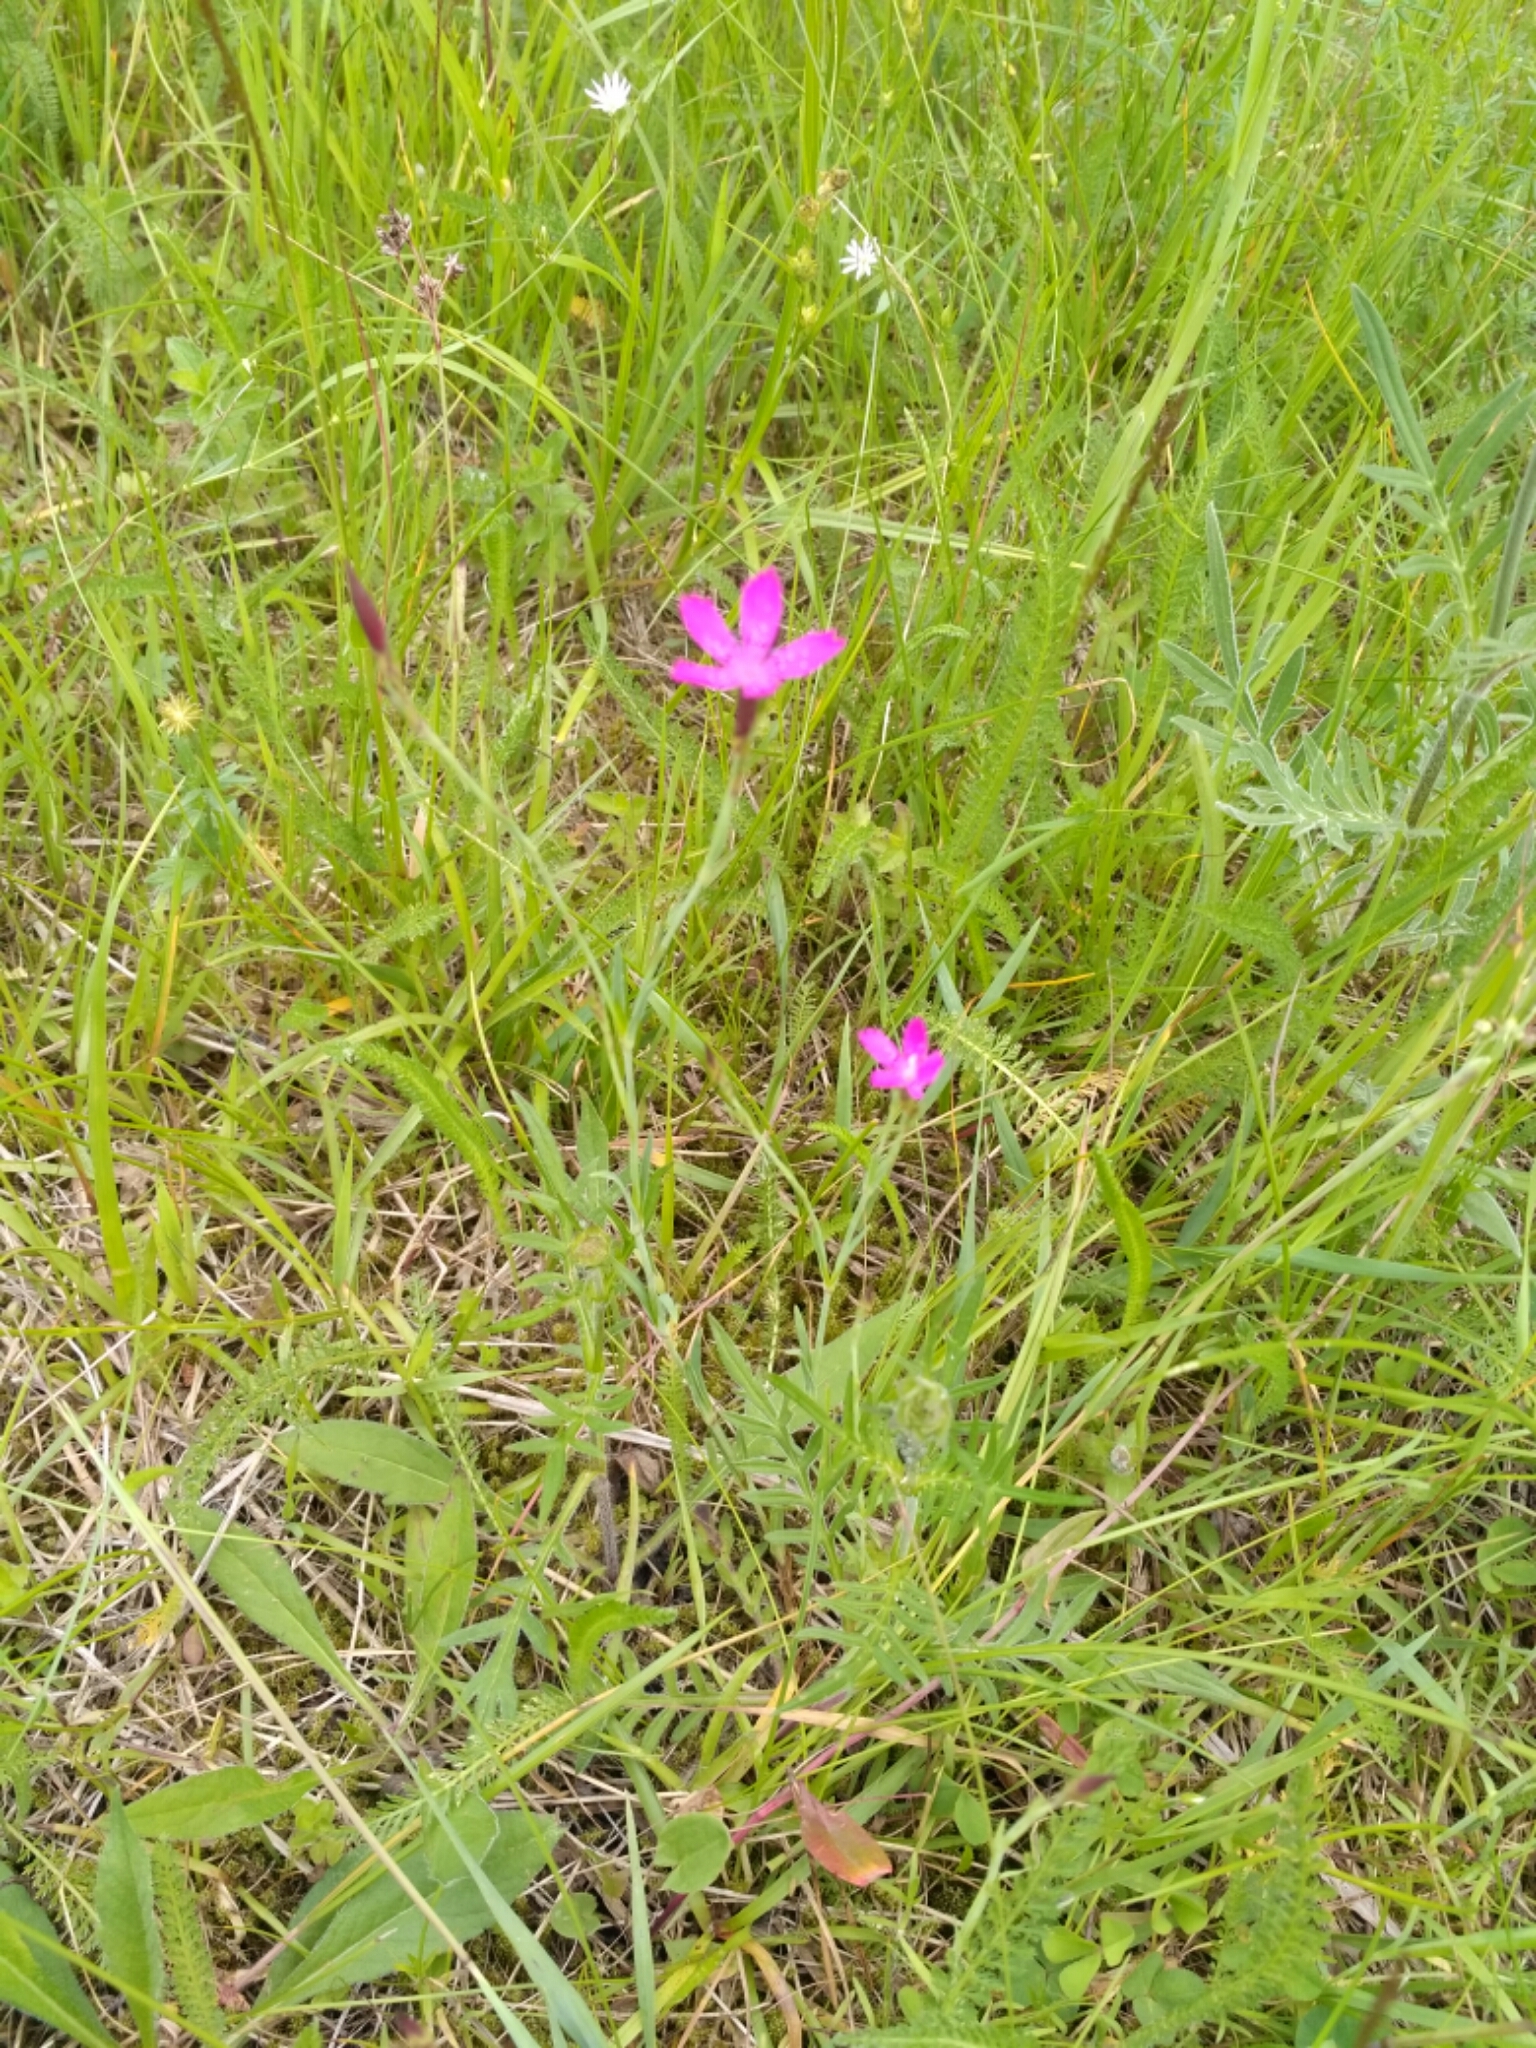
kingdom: Plantae
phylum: Tracheophyta
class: Magnoliopsida
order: Caryophyllales
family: Caryophyllaceae
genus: Dianthus
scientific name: Dianthus deltoides
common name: Maiden pink
